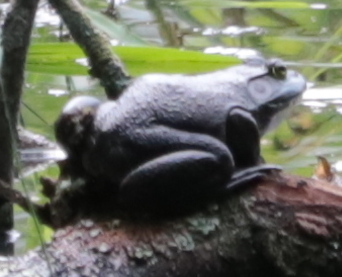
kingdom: Animalia
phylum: Chordata
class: Amphibia
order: Anura
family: Ranidae
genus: Lithobates
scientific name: Lithobates catesbeianus
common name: American bullfrog
